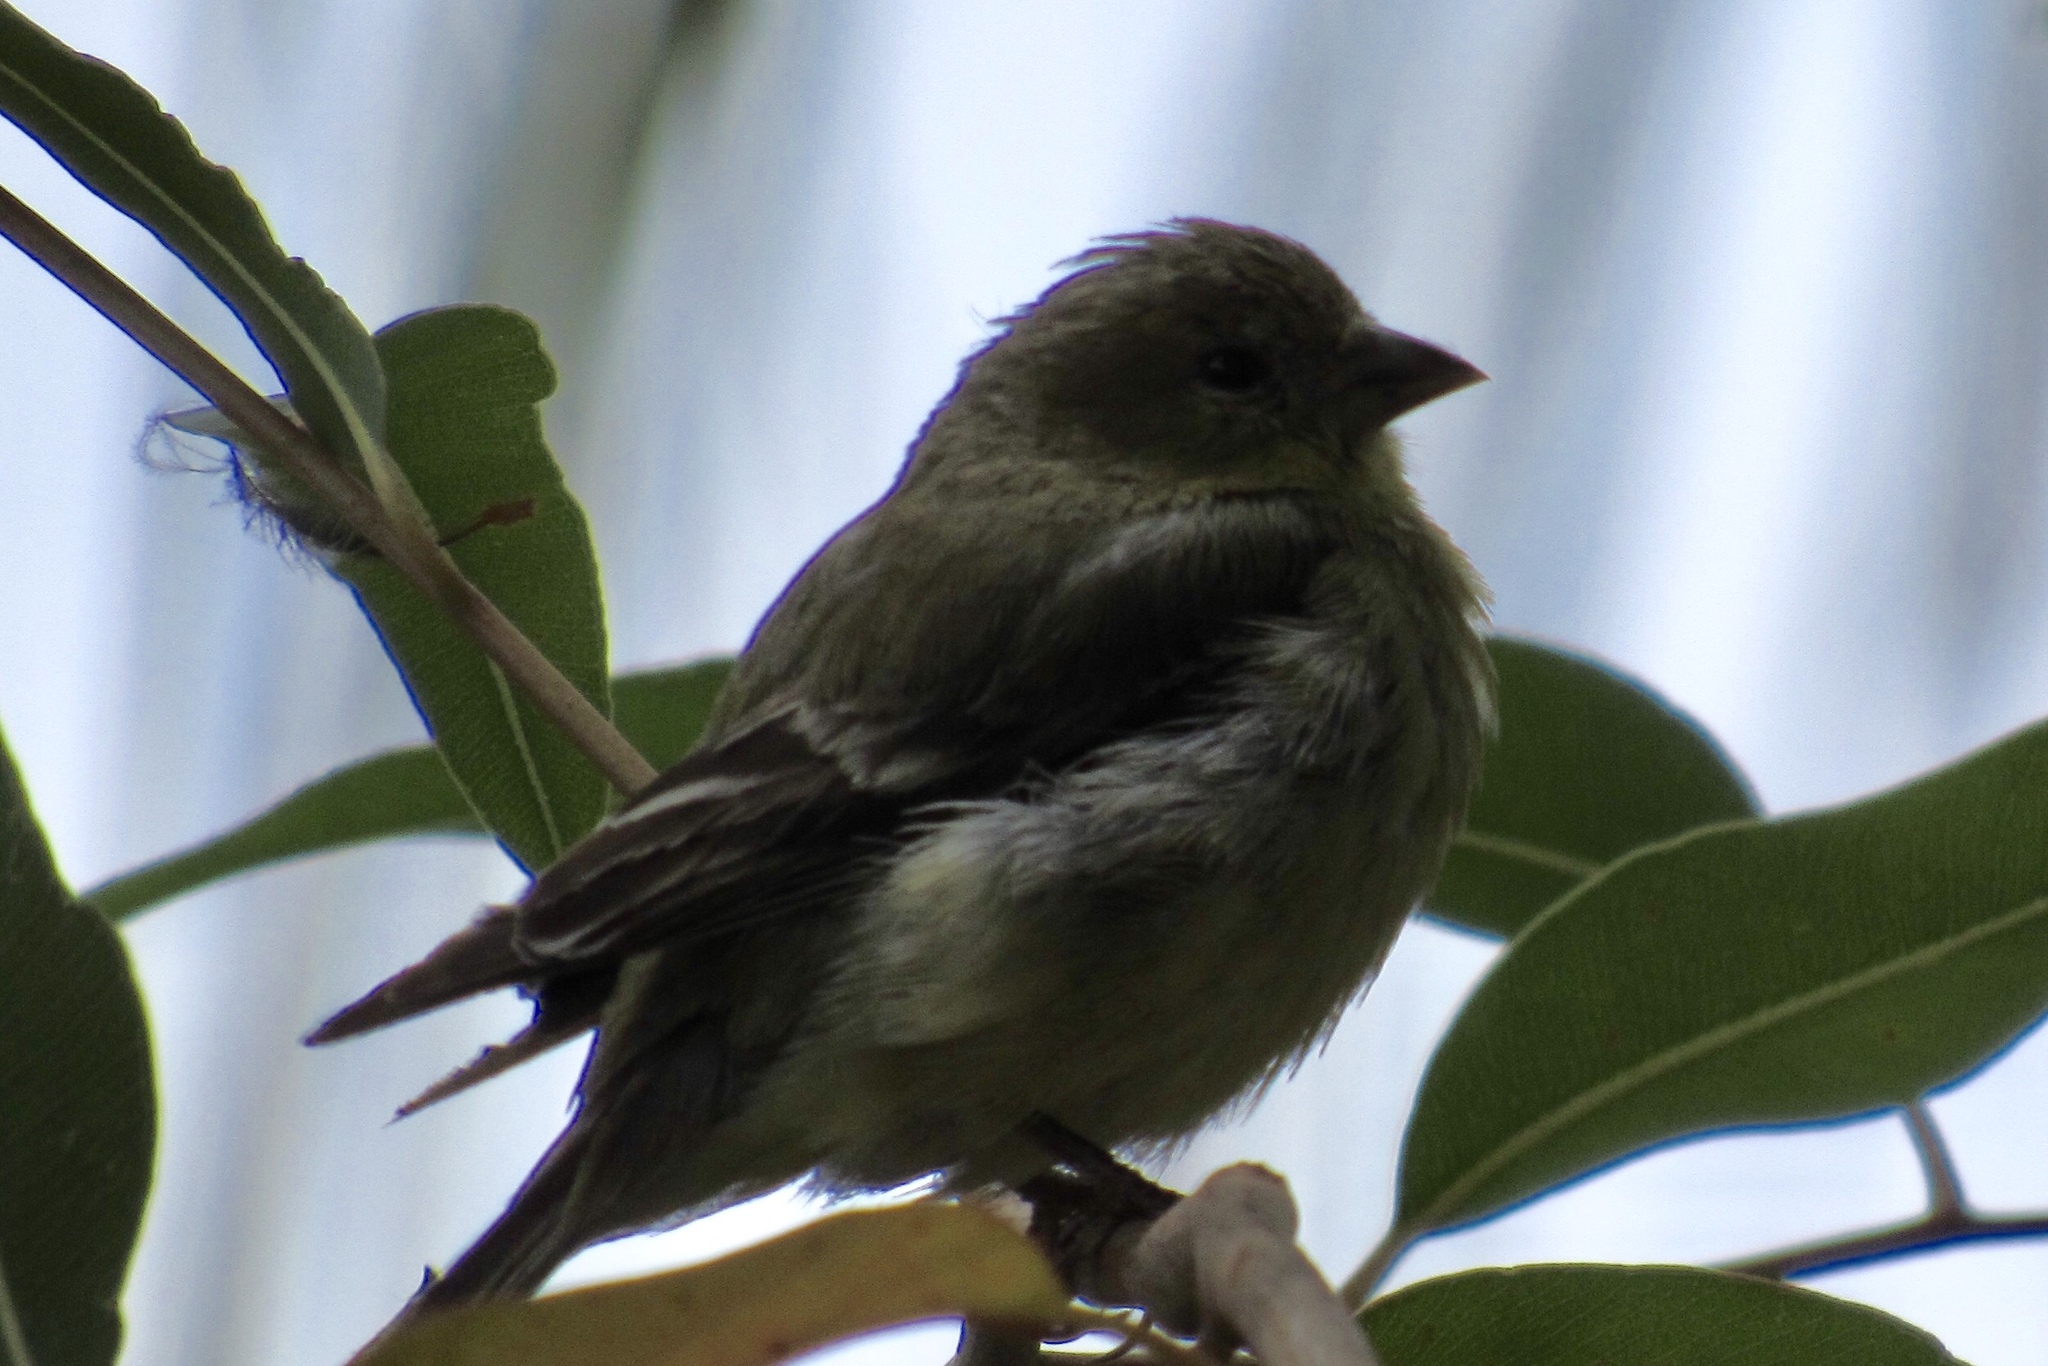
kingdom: Animalia
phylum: Chordata
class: Aves
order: Passeriformes
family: Fringillidae
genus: Spinus
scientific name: Spinus psaltria
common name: Lesser goldfinch
